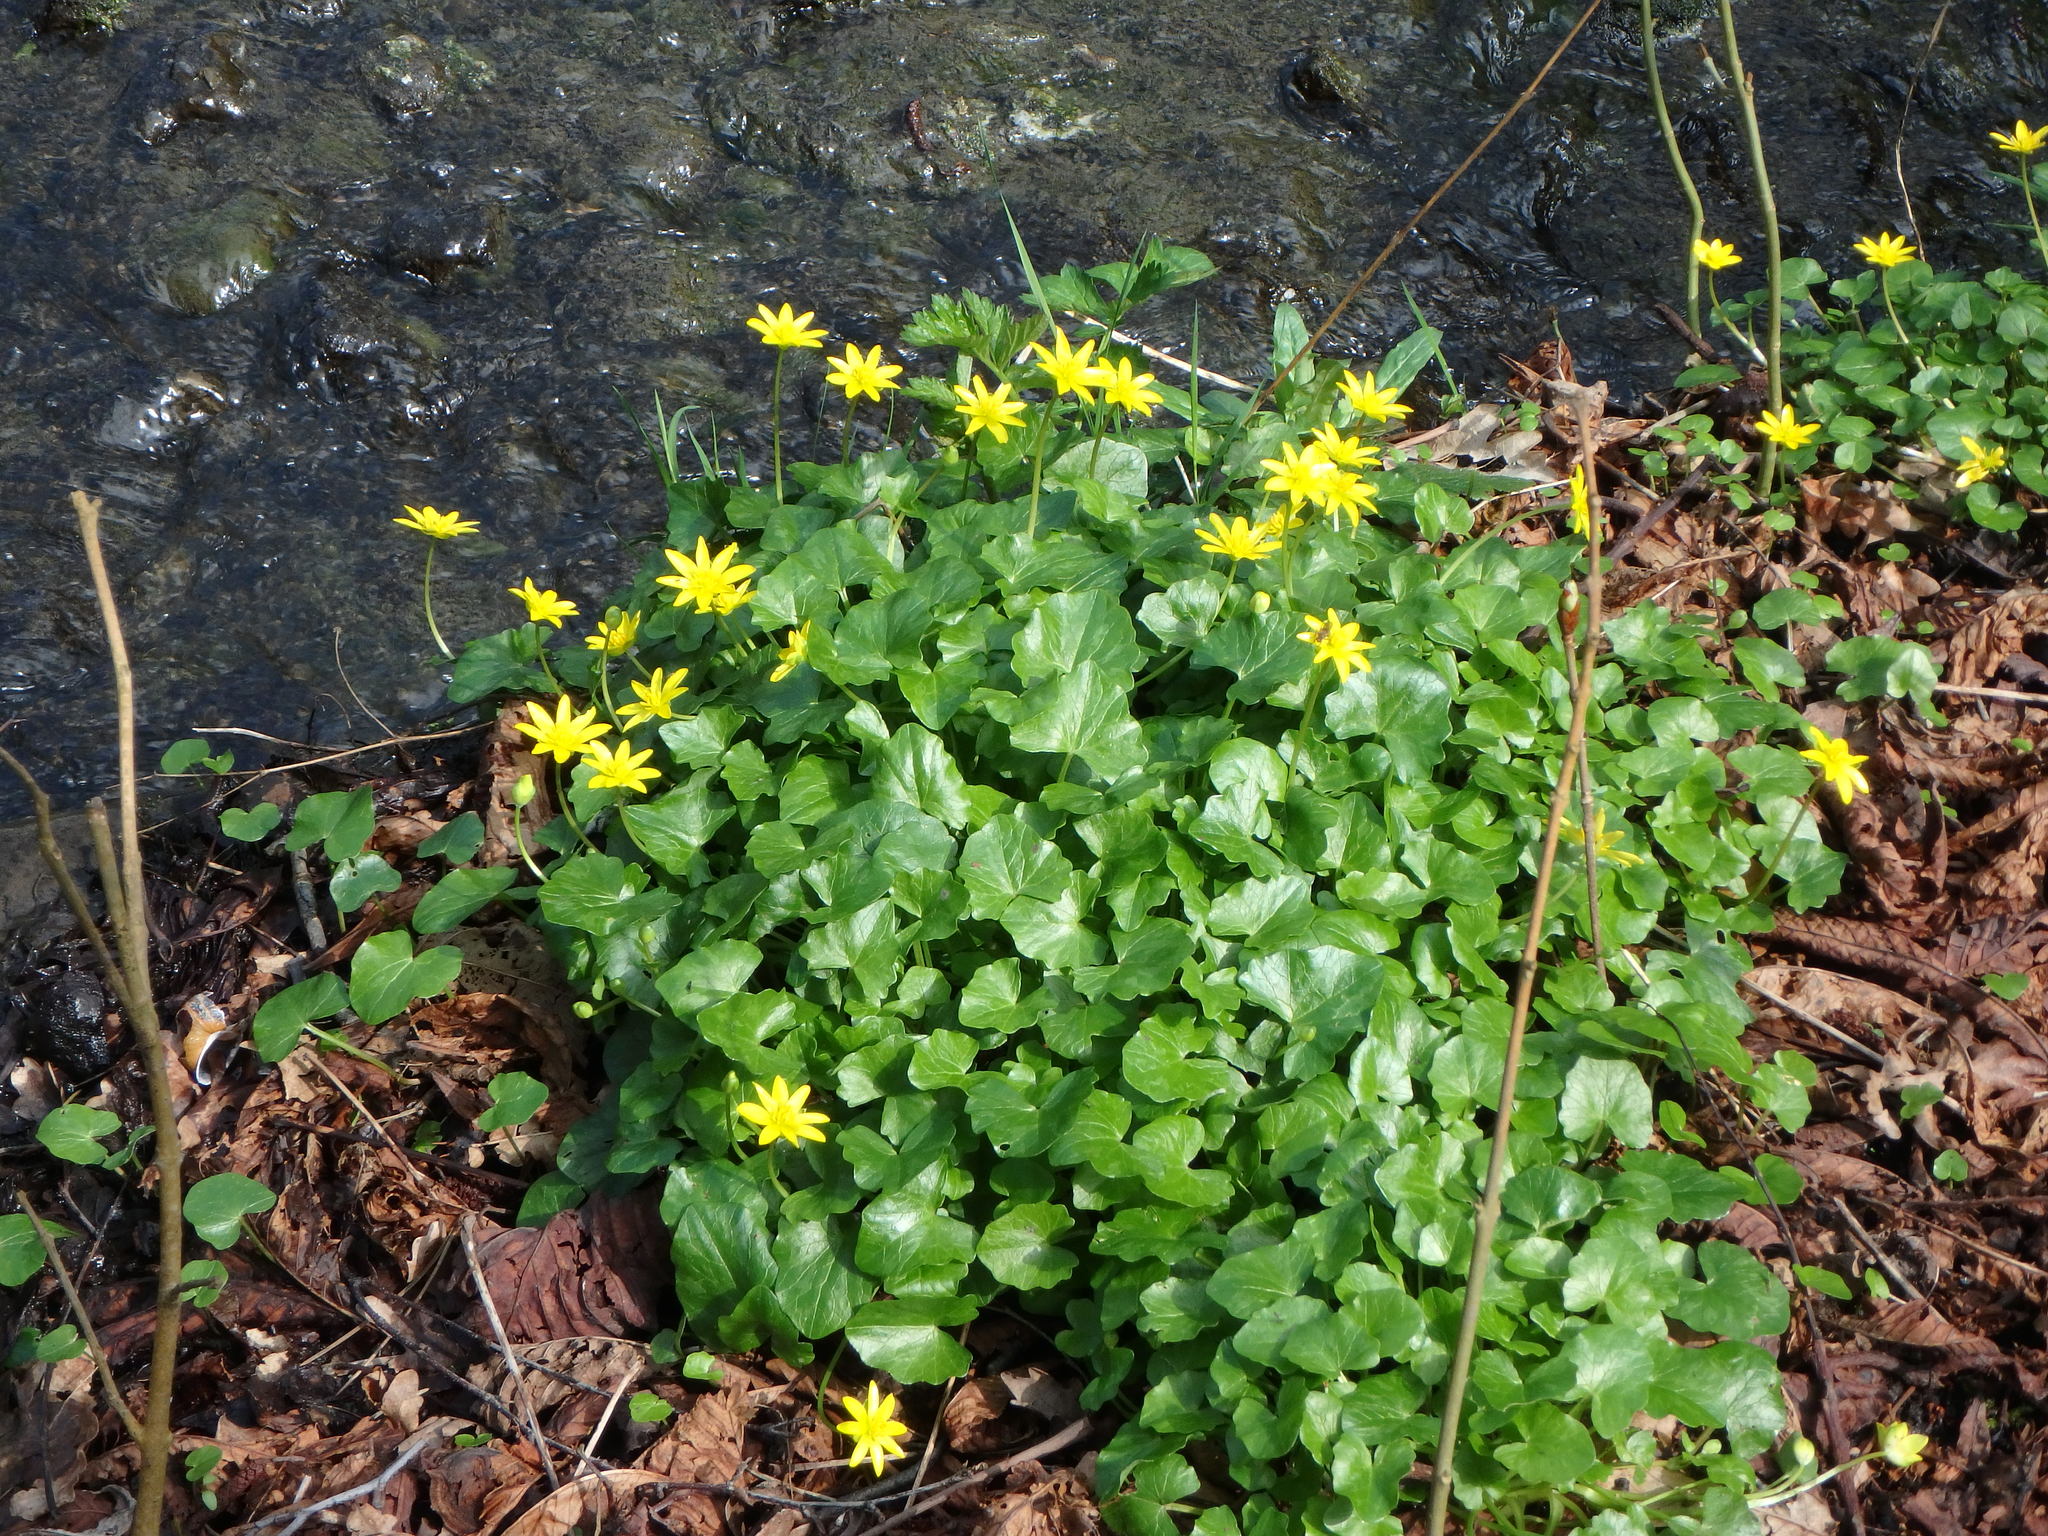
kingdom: Plantae
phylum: Tracheophyta
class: Magnoliopsida
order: Ranunculales
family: Ranunculaceae
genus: Ficaria
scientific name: Ficaria verna
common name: Lesser celandine
